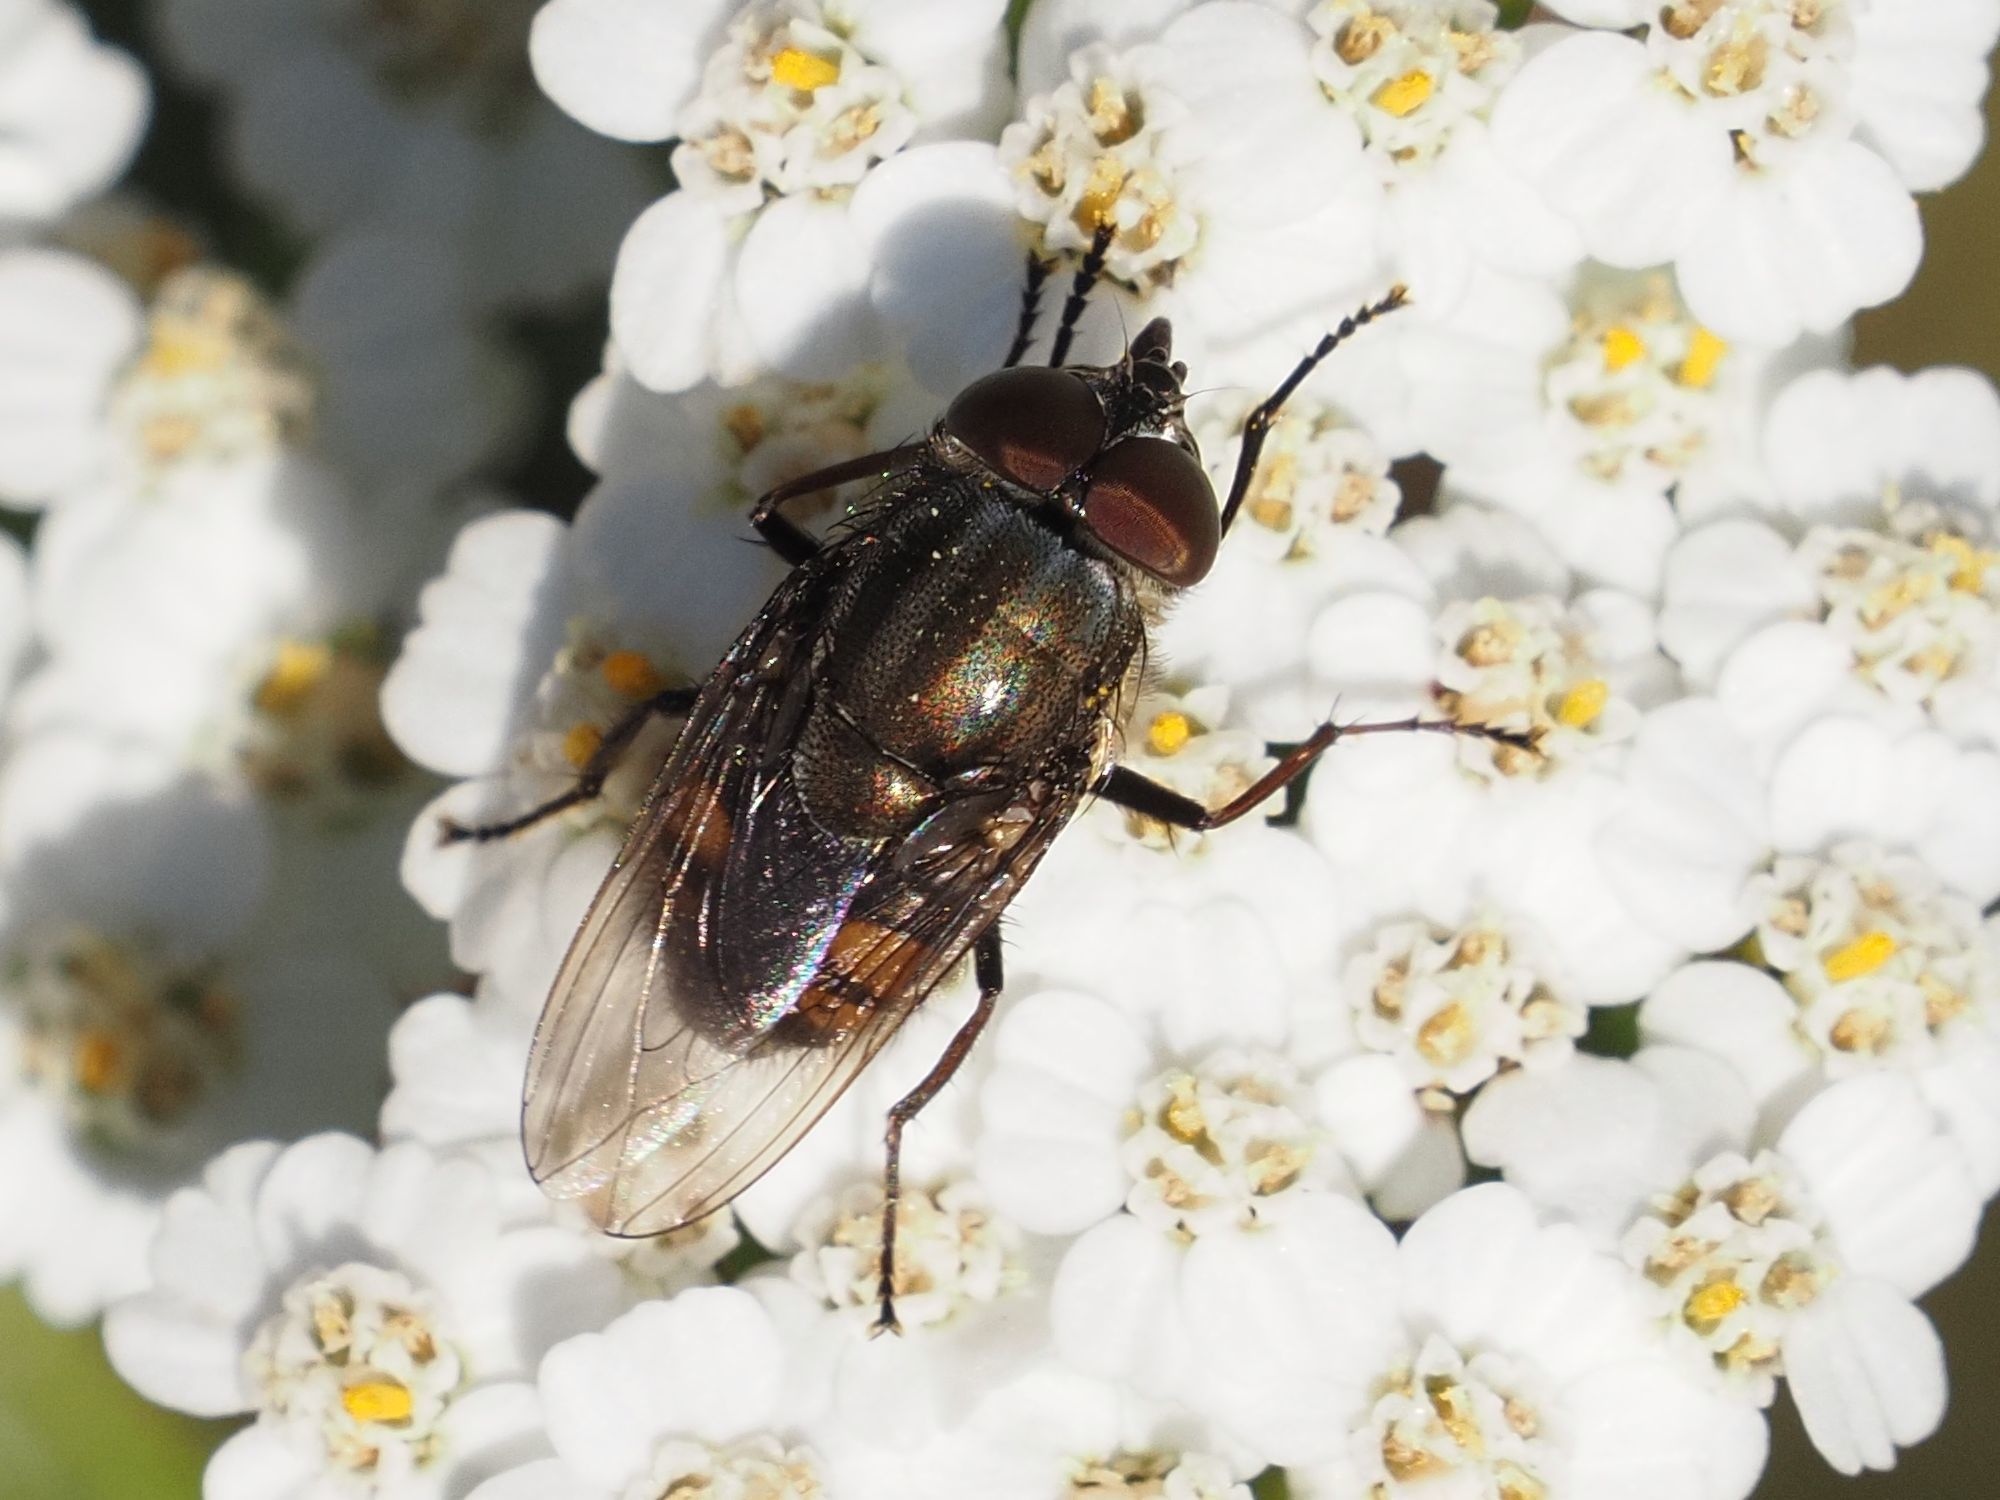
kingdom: Animalia
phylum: Arthropoda
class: Insecta
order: Diptera
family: Calliphoridae
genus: Stomorhina
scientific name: Stomorhina lunata
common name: Locust blowfly
